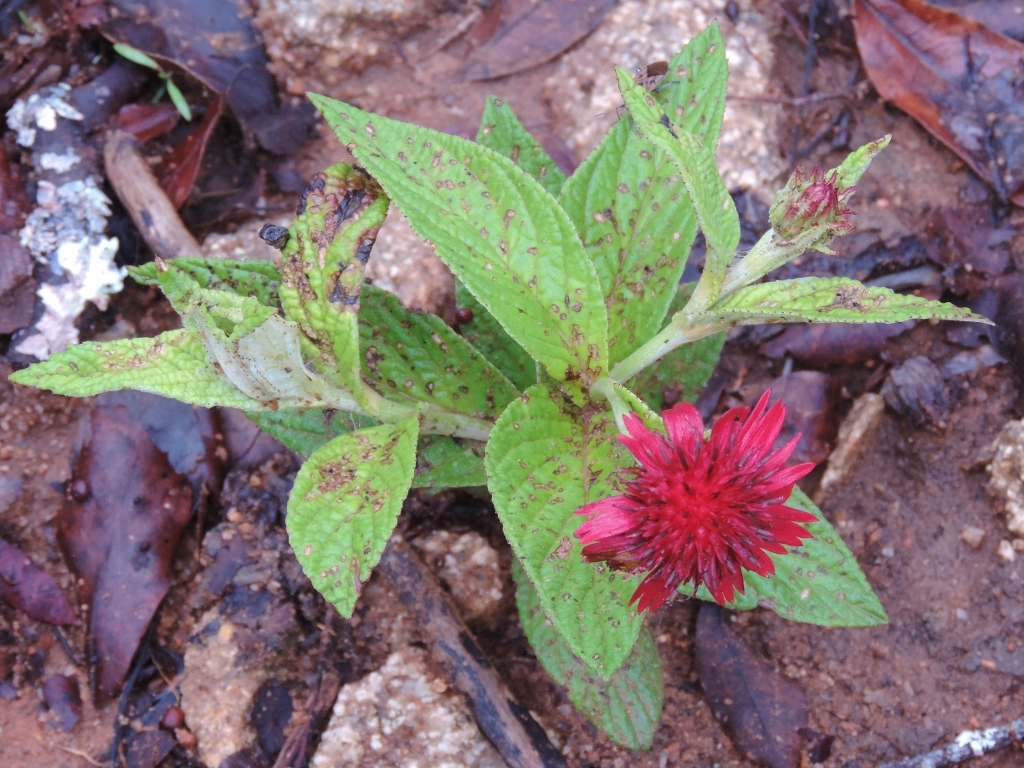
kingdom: Plantae
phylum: Tracheophyta
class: Magnoliopsida
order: Asterales
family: Asteraceae
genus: Erythrocephalum
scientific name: Erythrocephalum longifolium
